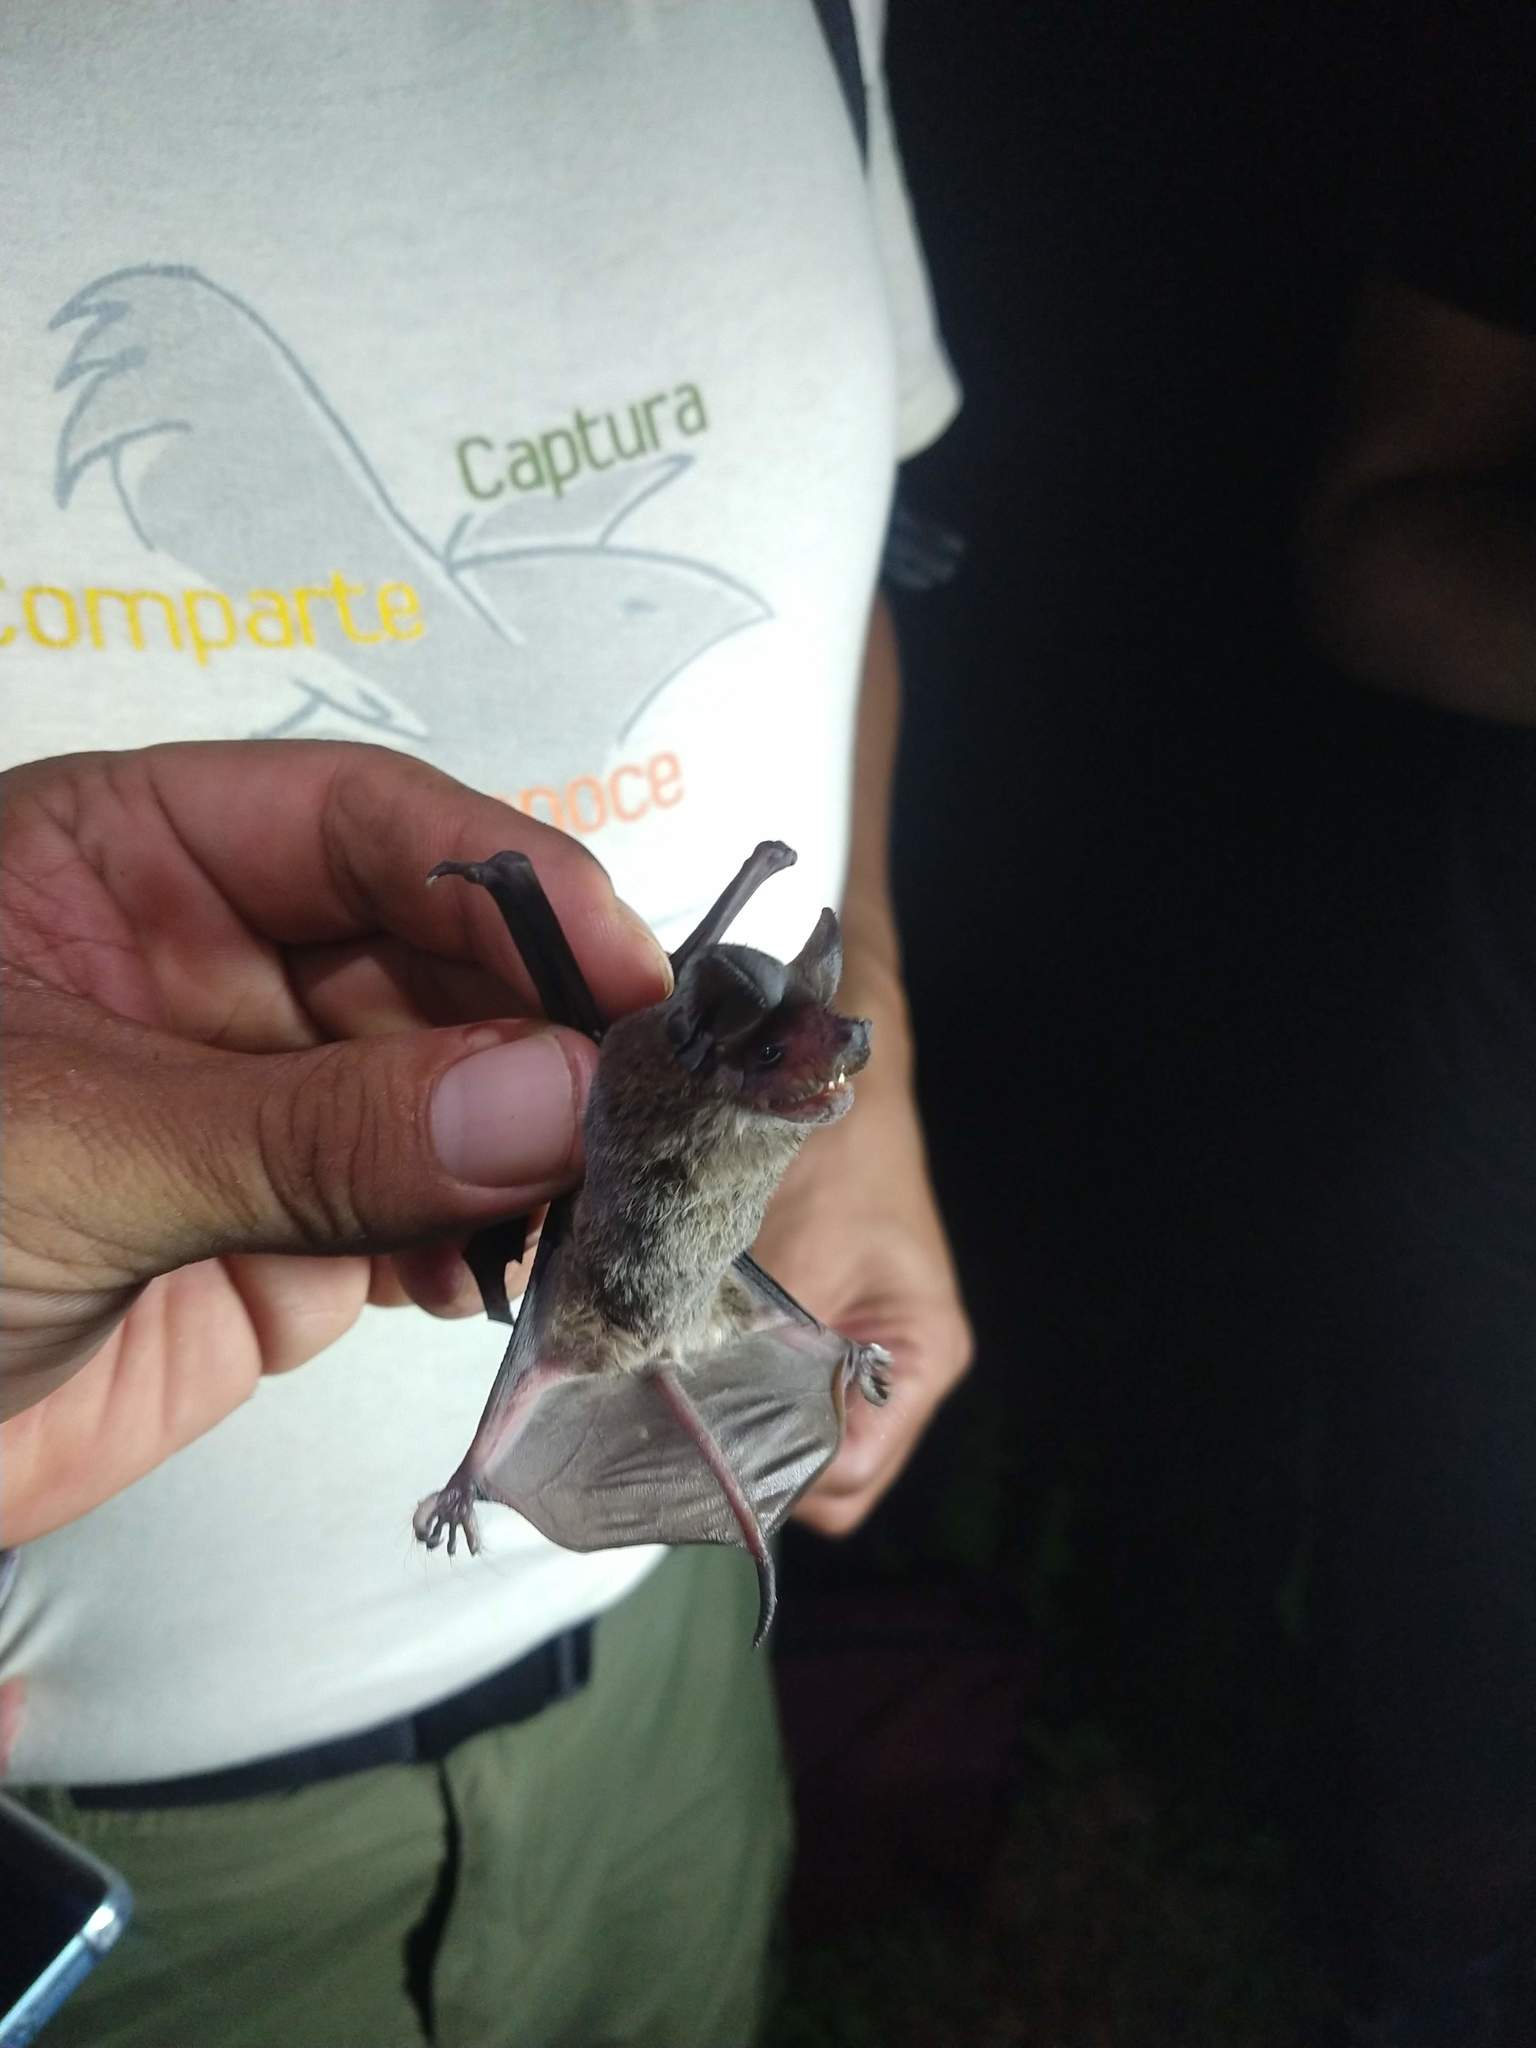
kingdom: Animalia
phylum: Chordata
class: Mammalia
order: Chiroptera
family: Molossidae
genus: Nyctinomops
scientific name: Nyctinomops laticaudatus
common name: Broad-eared free-tailed bat
